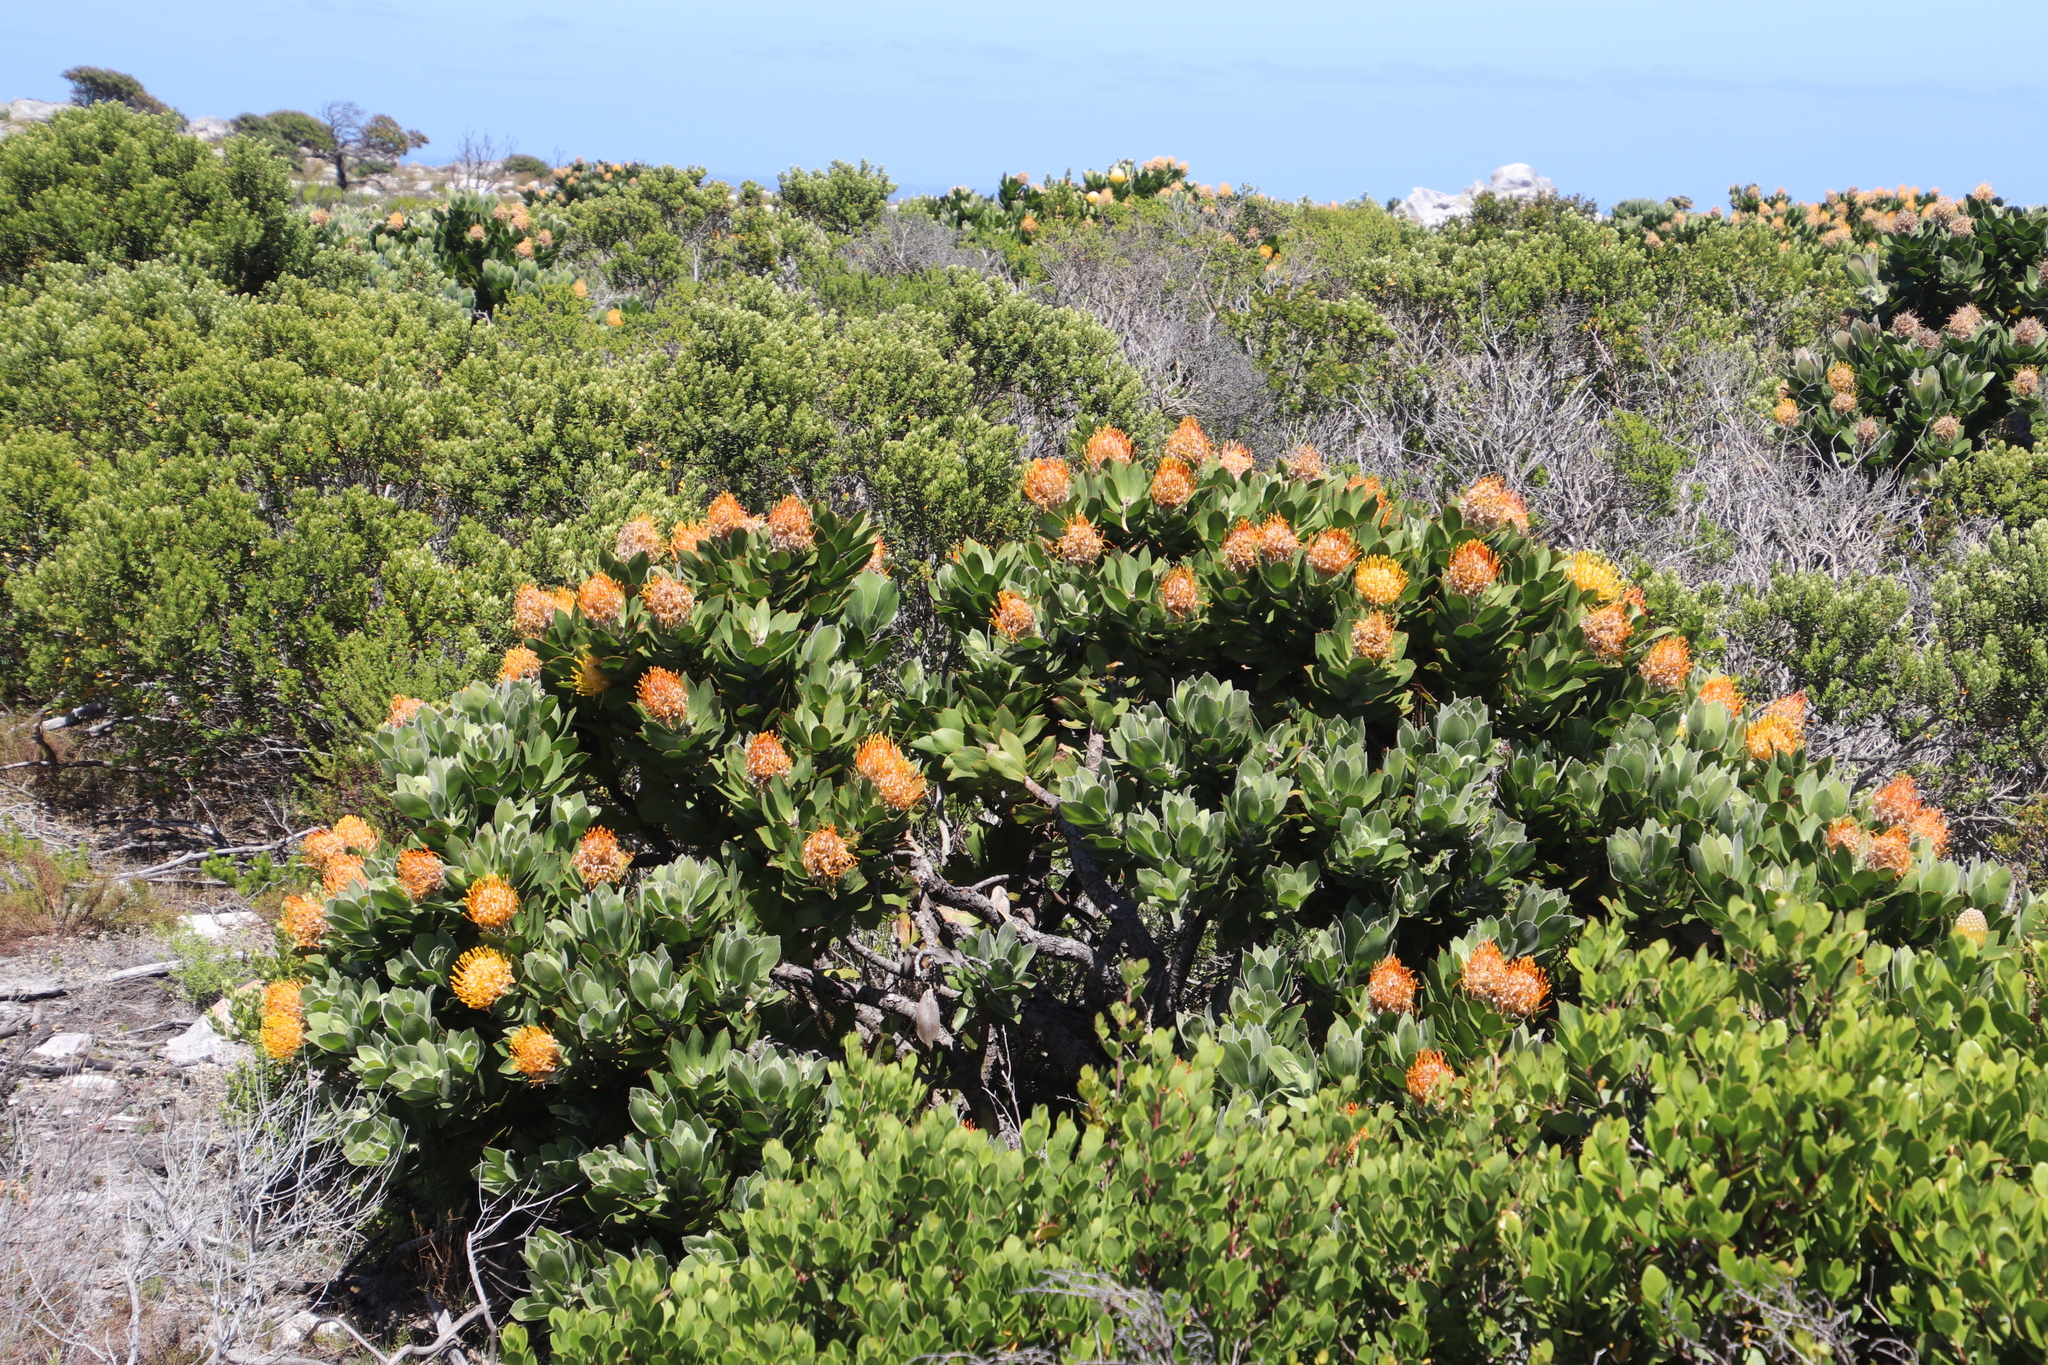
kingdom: Plantae
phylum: Tracheophyta
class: Magnoliopsida
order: Proteales
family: Proteaceae
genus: Leucospermum
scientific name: Leucospermum conocarpodendron
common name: Tree pincushion
